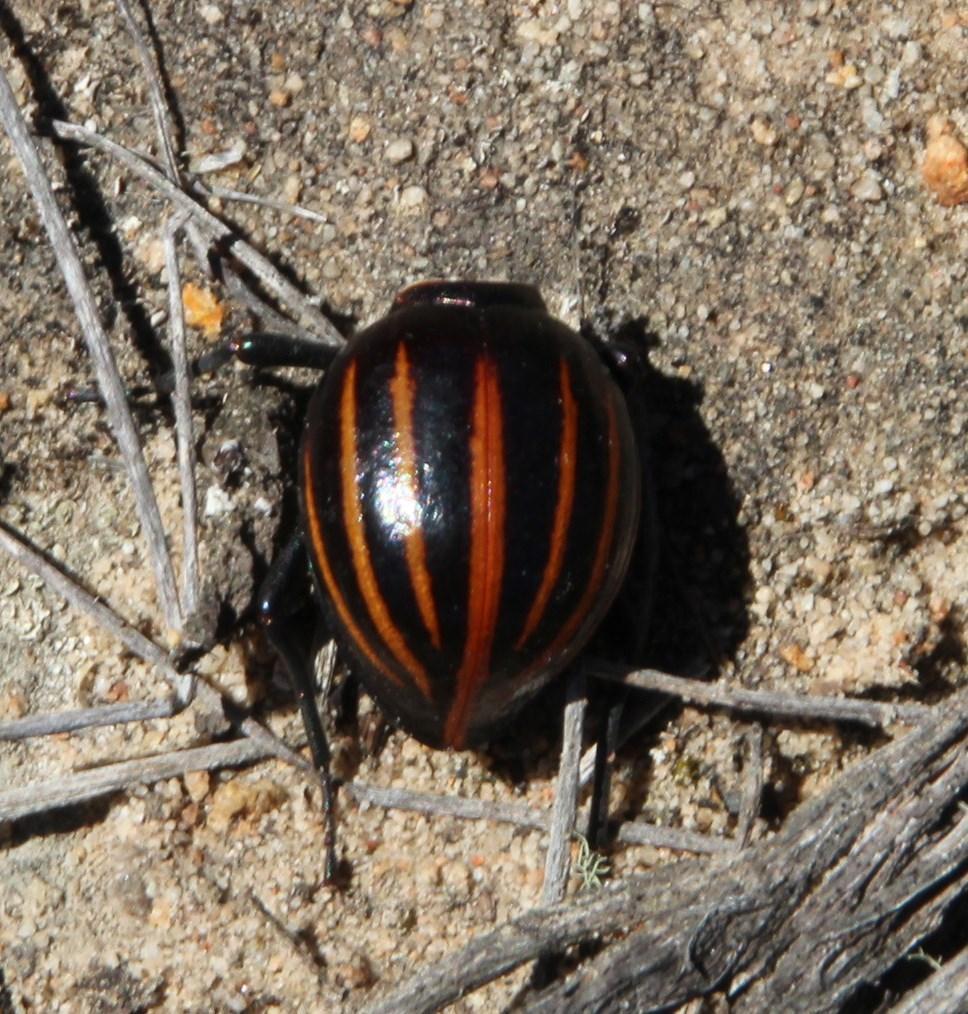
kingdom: Animalia
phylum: Arthropoda
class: Insecta
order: Coleoptera
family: Tenebrionidae
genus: Mariazofia
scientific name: Mariazofia
